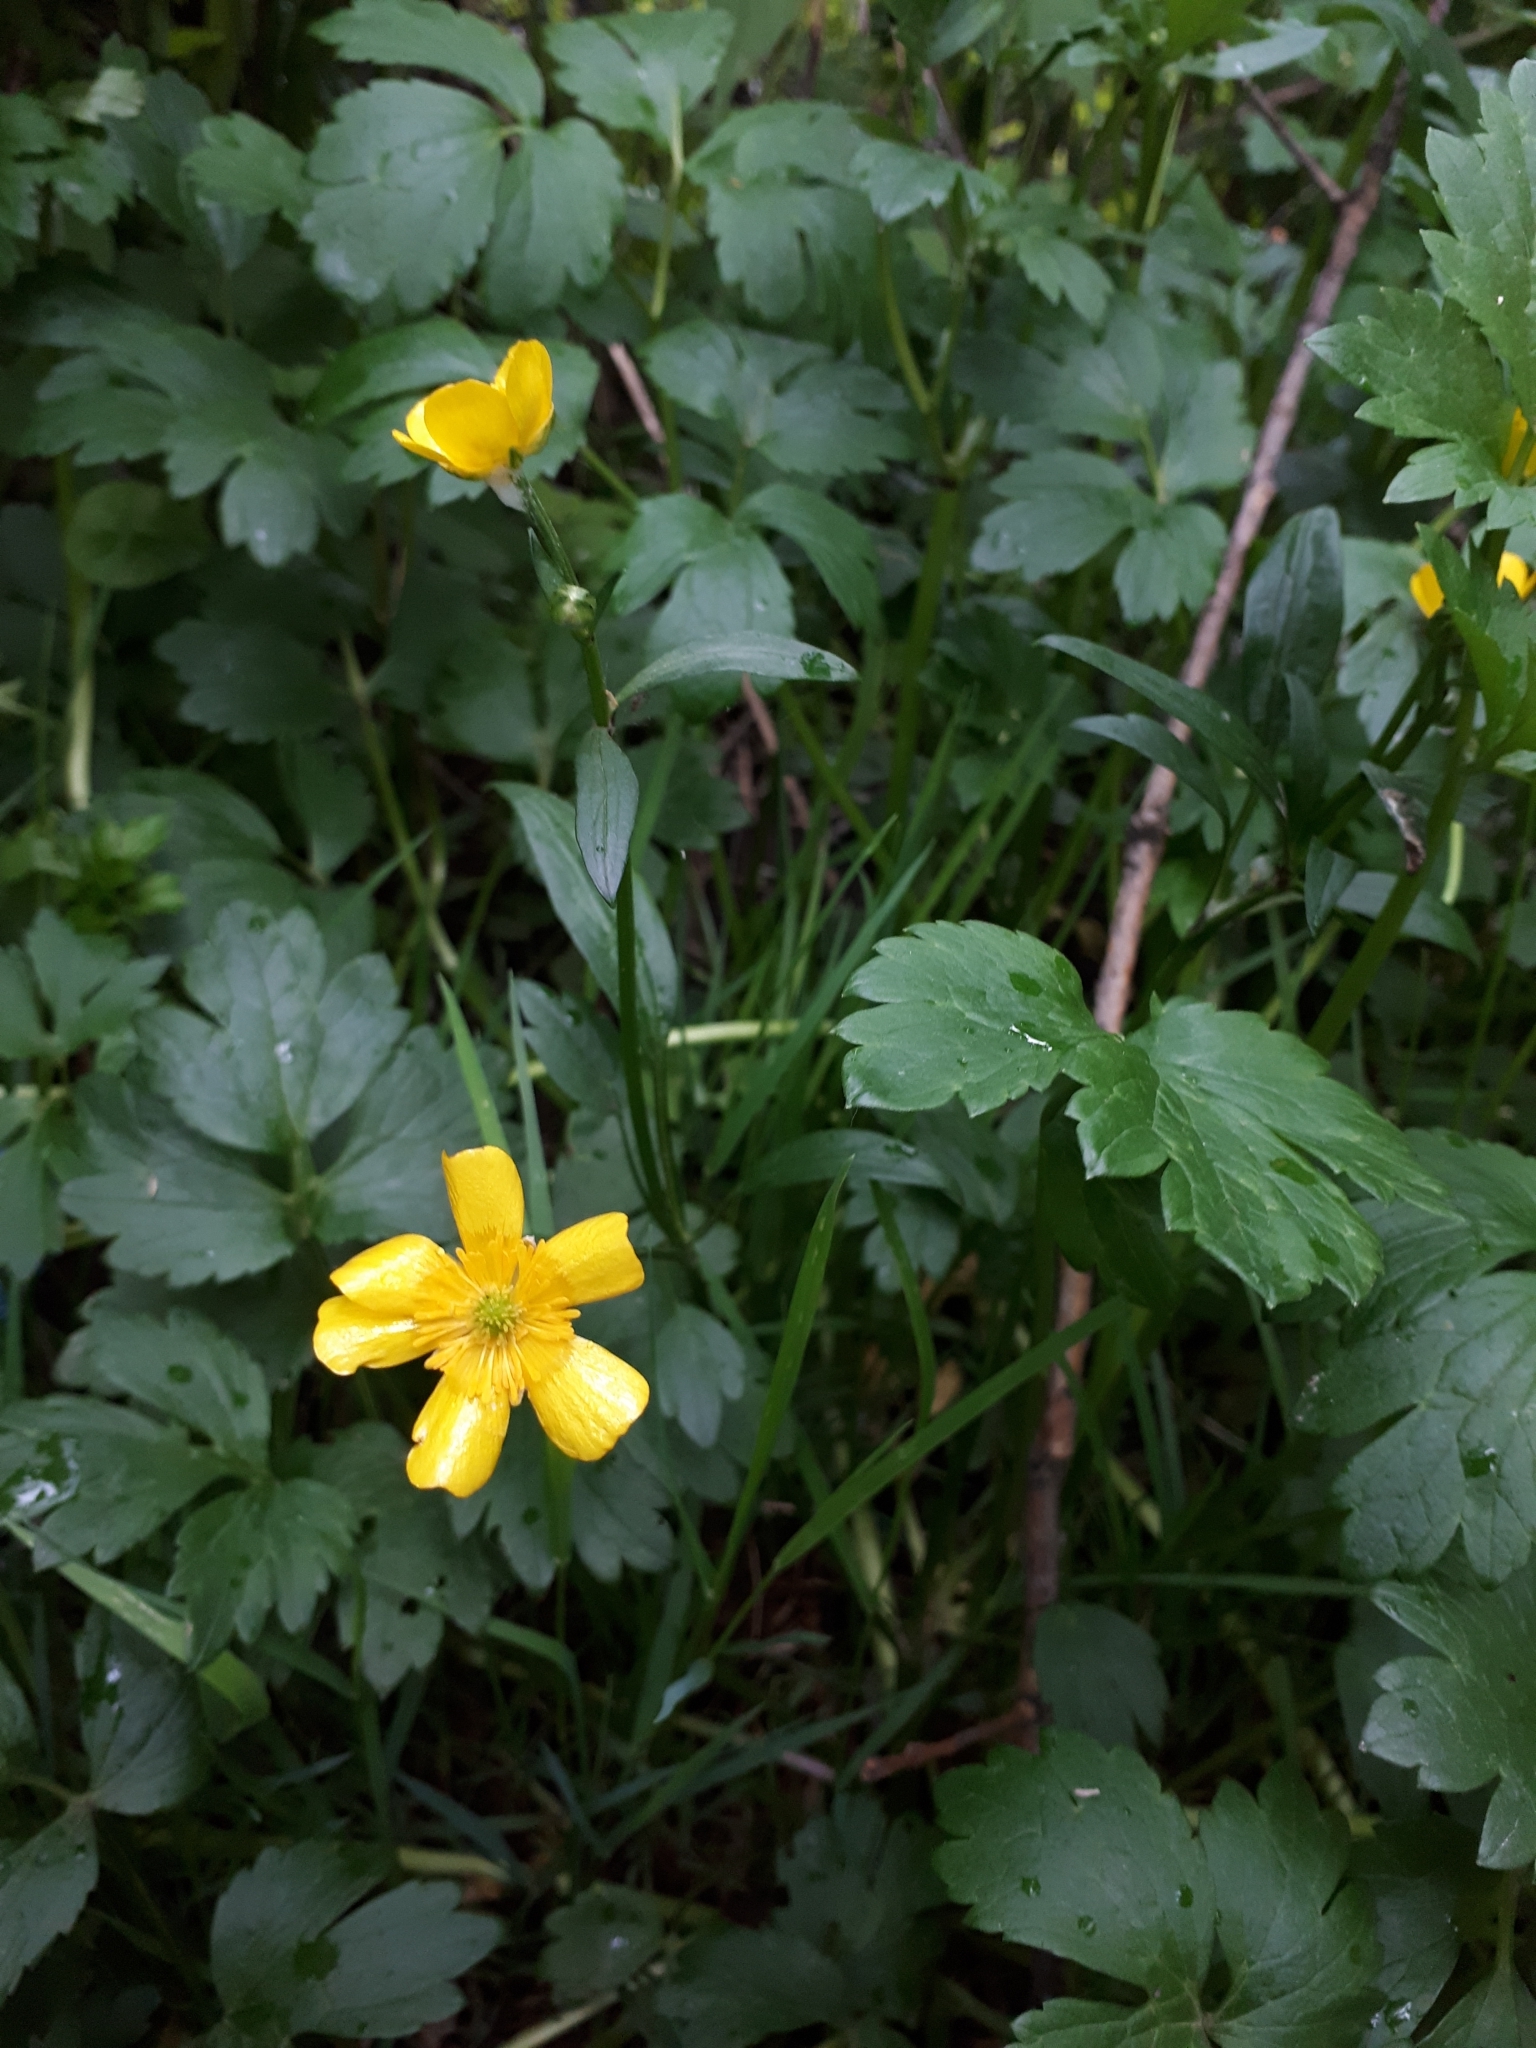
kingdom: Plantae
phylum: Tracheophyta
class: Magnoliopsida
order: Ranunculales
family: Ranunculaceae
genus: Ranunculus
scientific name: Ranunculus repens
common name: Creeping buttercup
